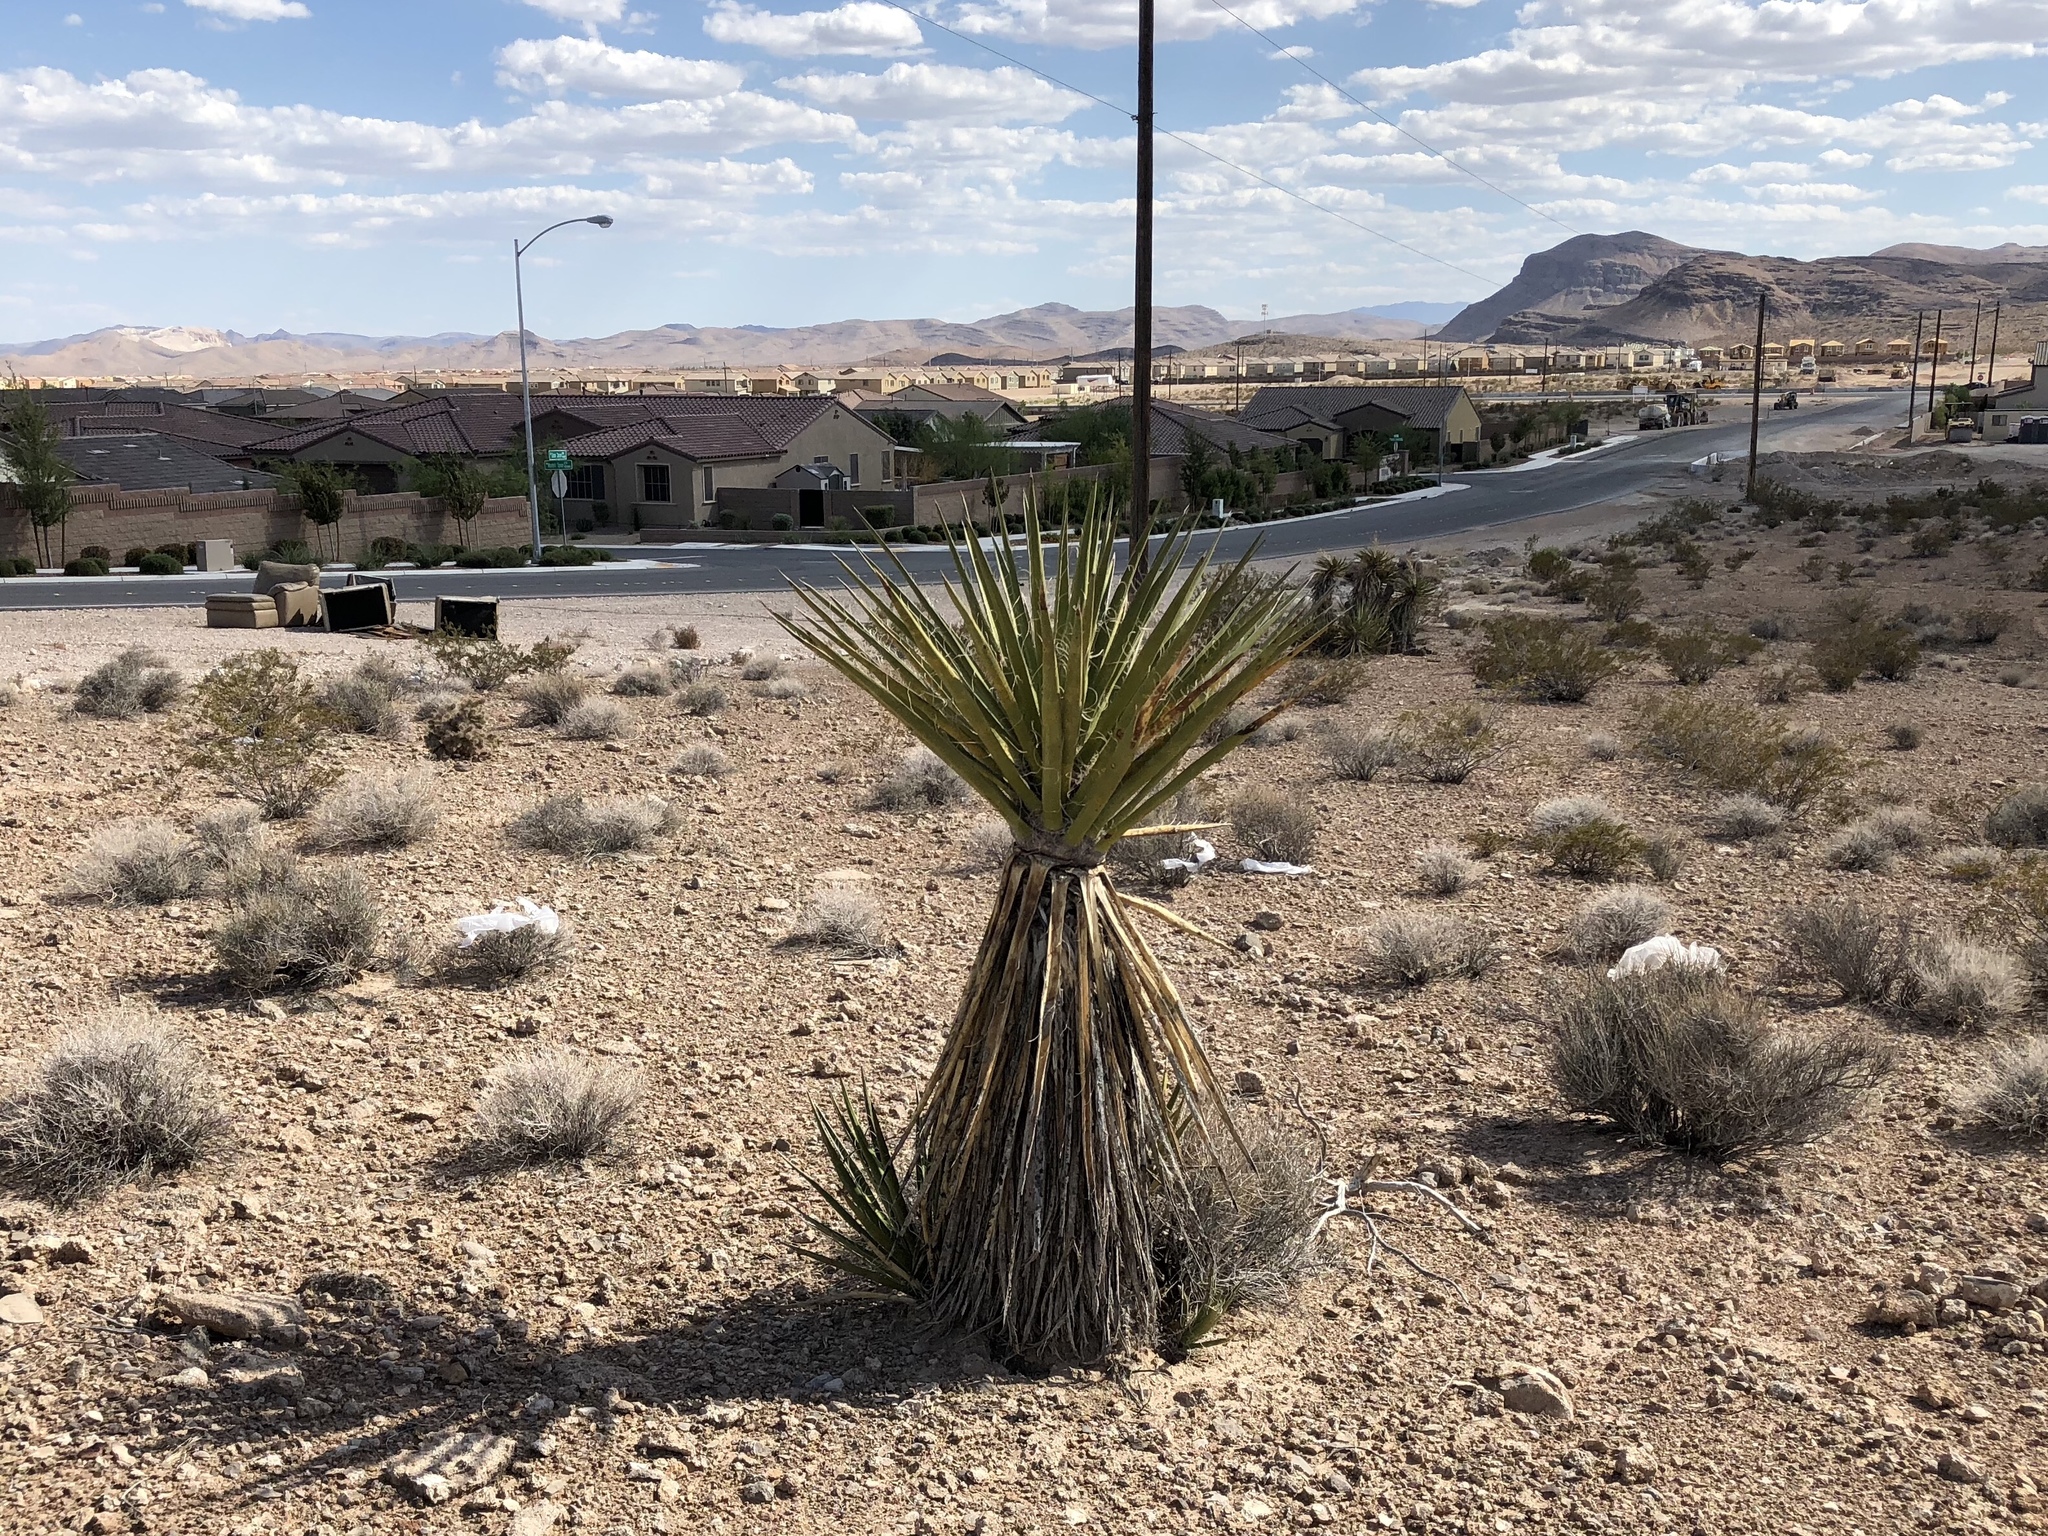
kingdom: Plantae
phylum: Tracheophyta
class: Liliopsida
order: Asparagales
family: Asparagaceae
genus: Yucca
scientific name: Yucca schidigera
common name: Mojave yucca
